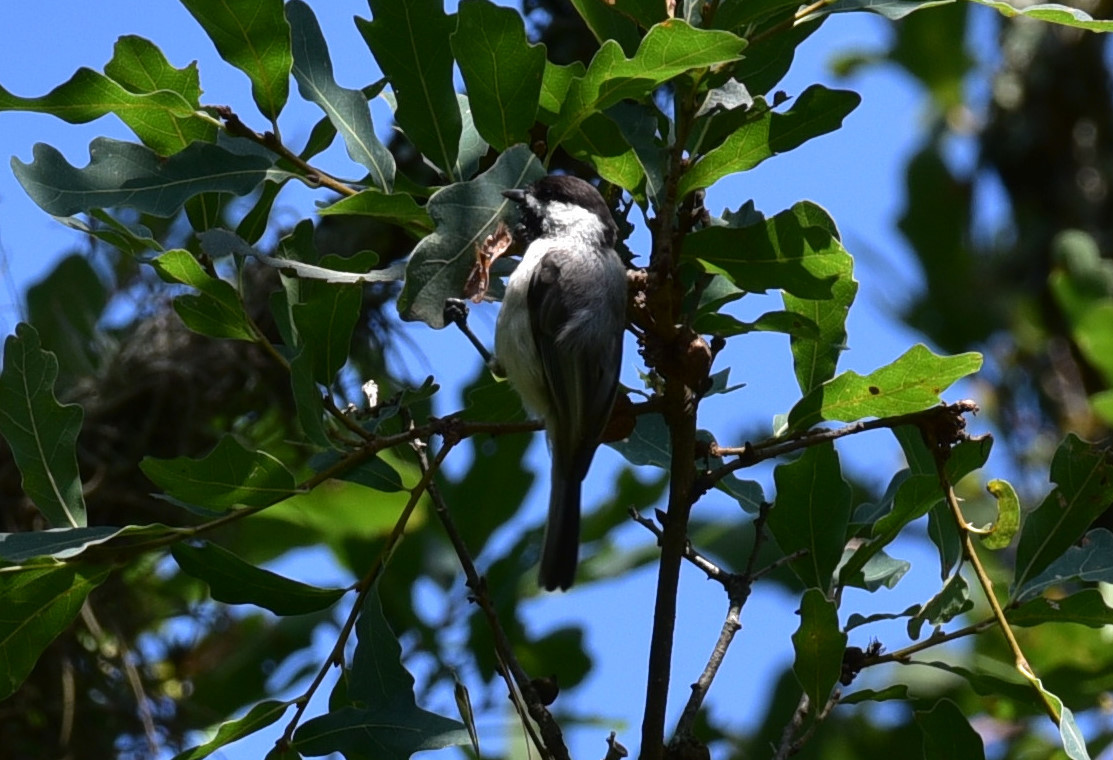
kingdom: Animalia
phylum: Chordata
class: Aves
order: Passeriformes
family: Paridae
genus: Poecile
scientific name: Poecile carolinensis
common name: Carolina chickadee
